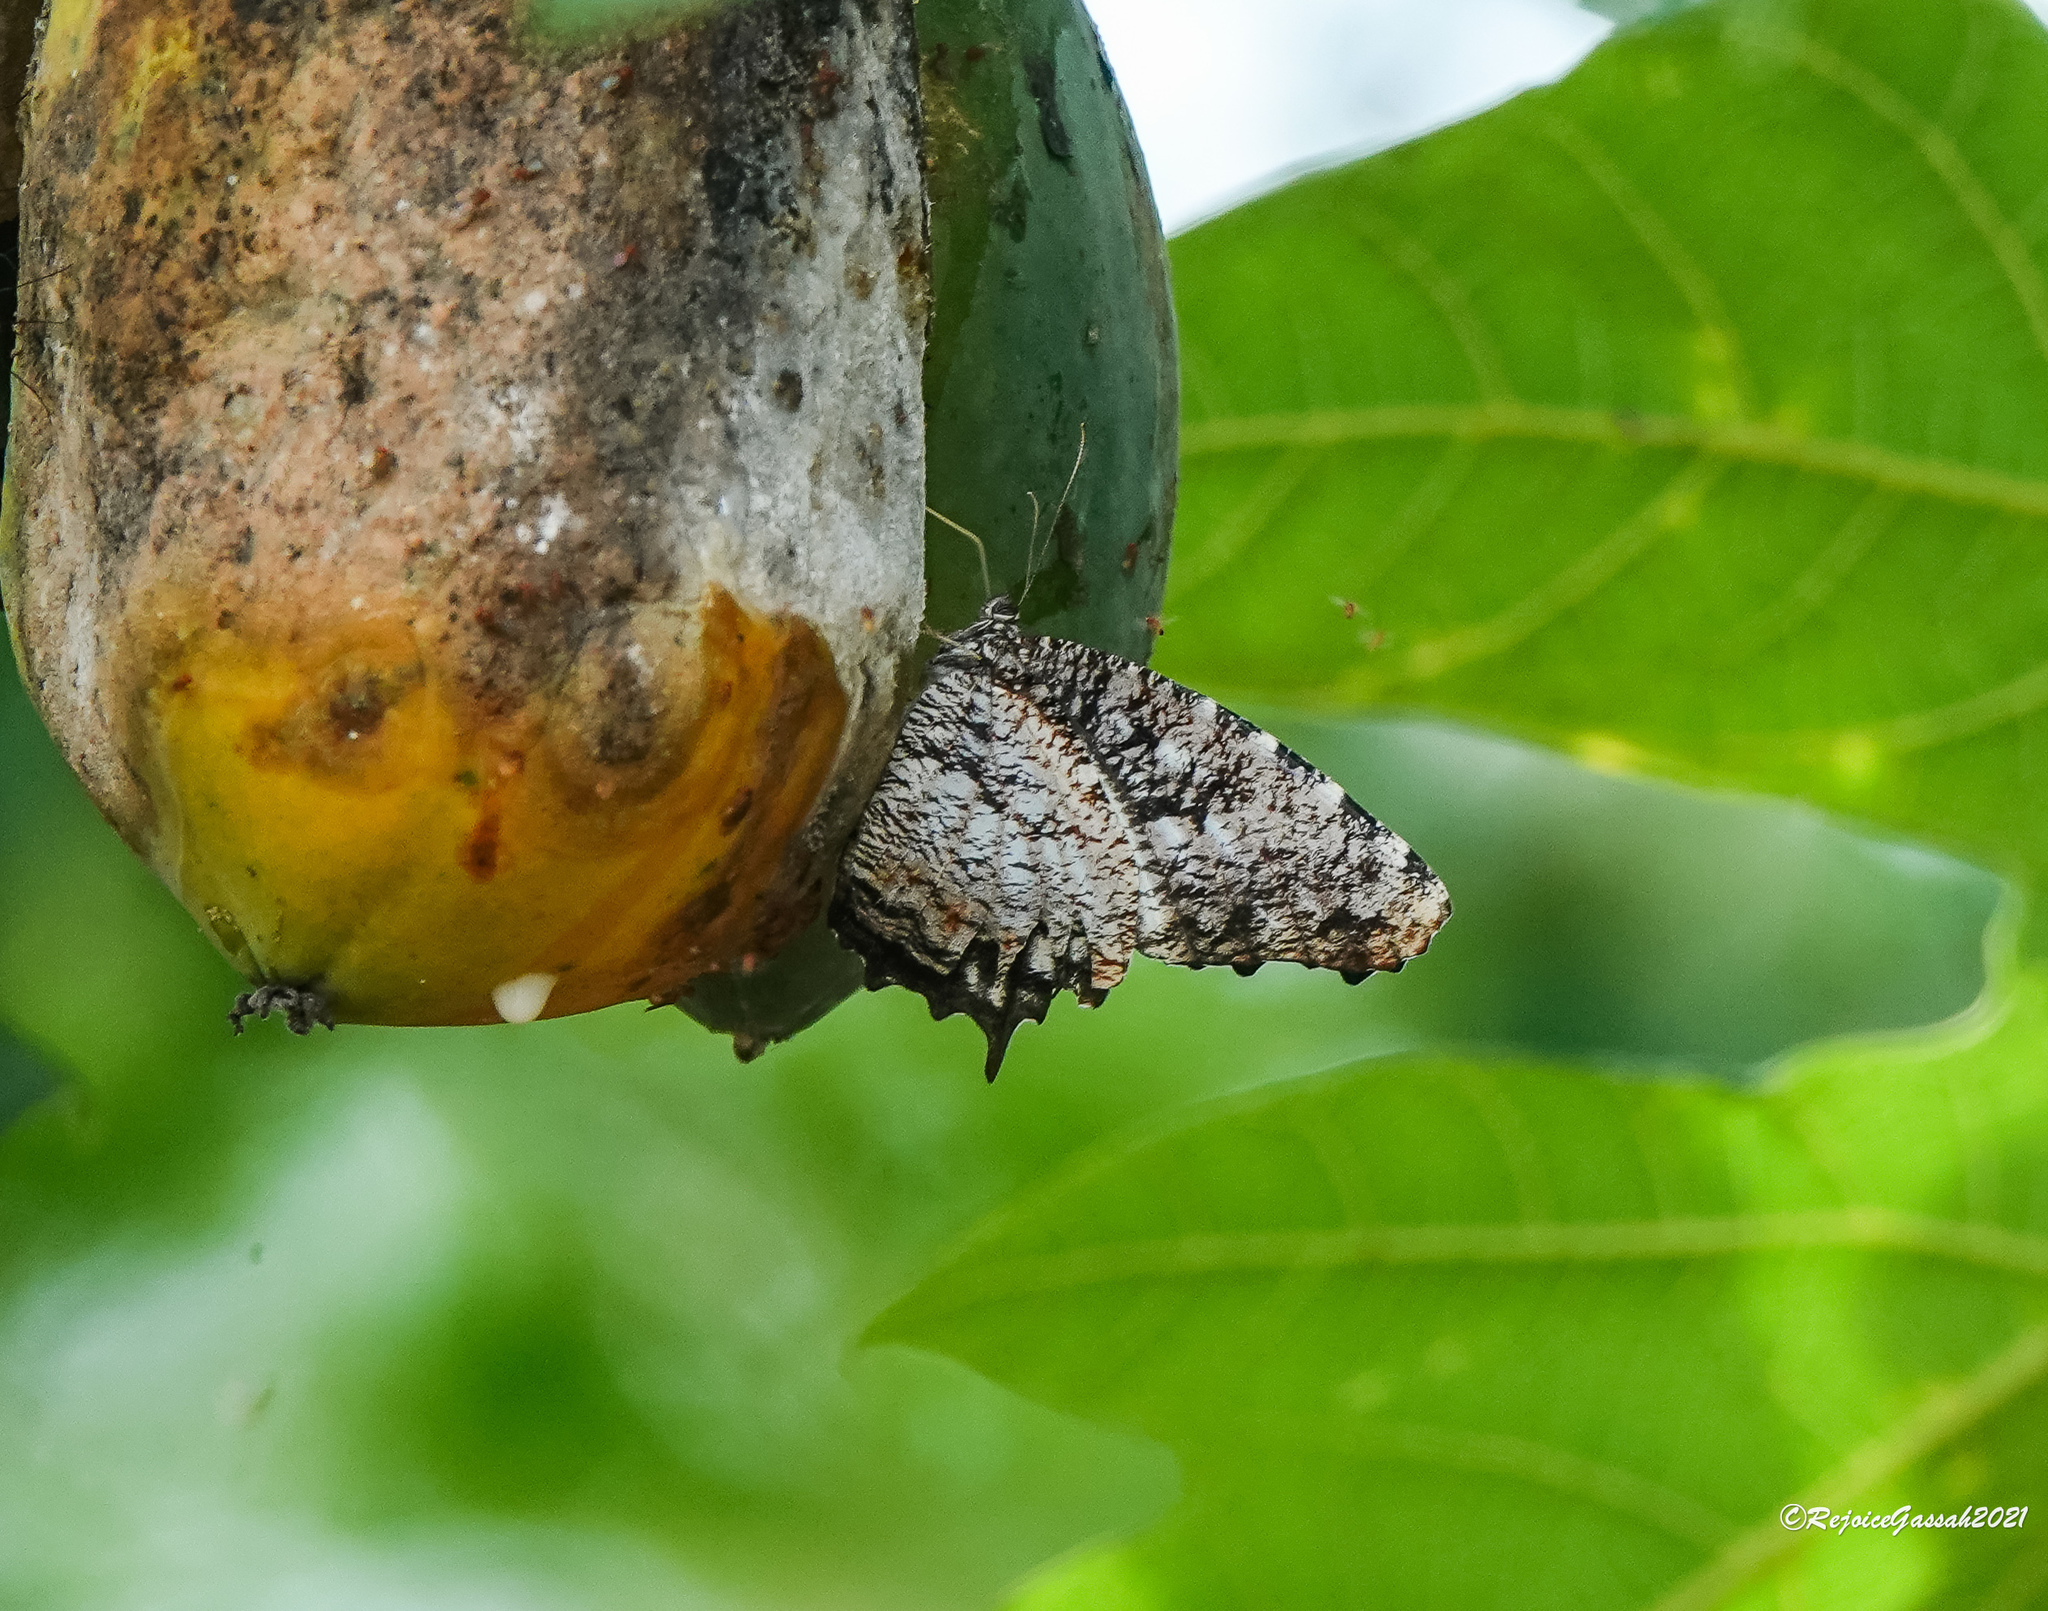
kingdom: Animalia
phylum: Arthropoda
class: Insecta
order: Lepidoptera
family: Nymphalidae
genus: Elymnias
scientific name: Elymnias nesaea
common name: Tiger palmfly
